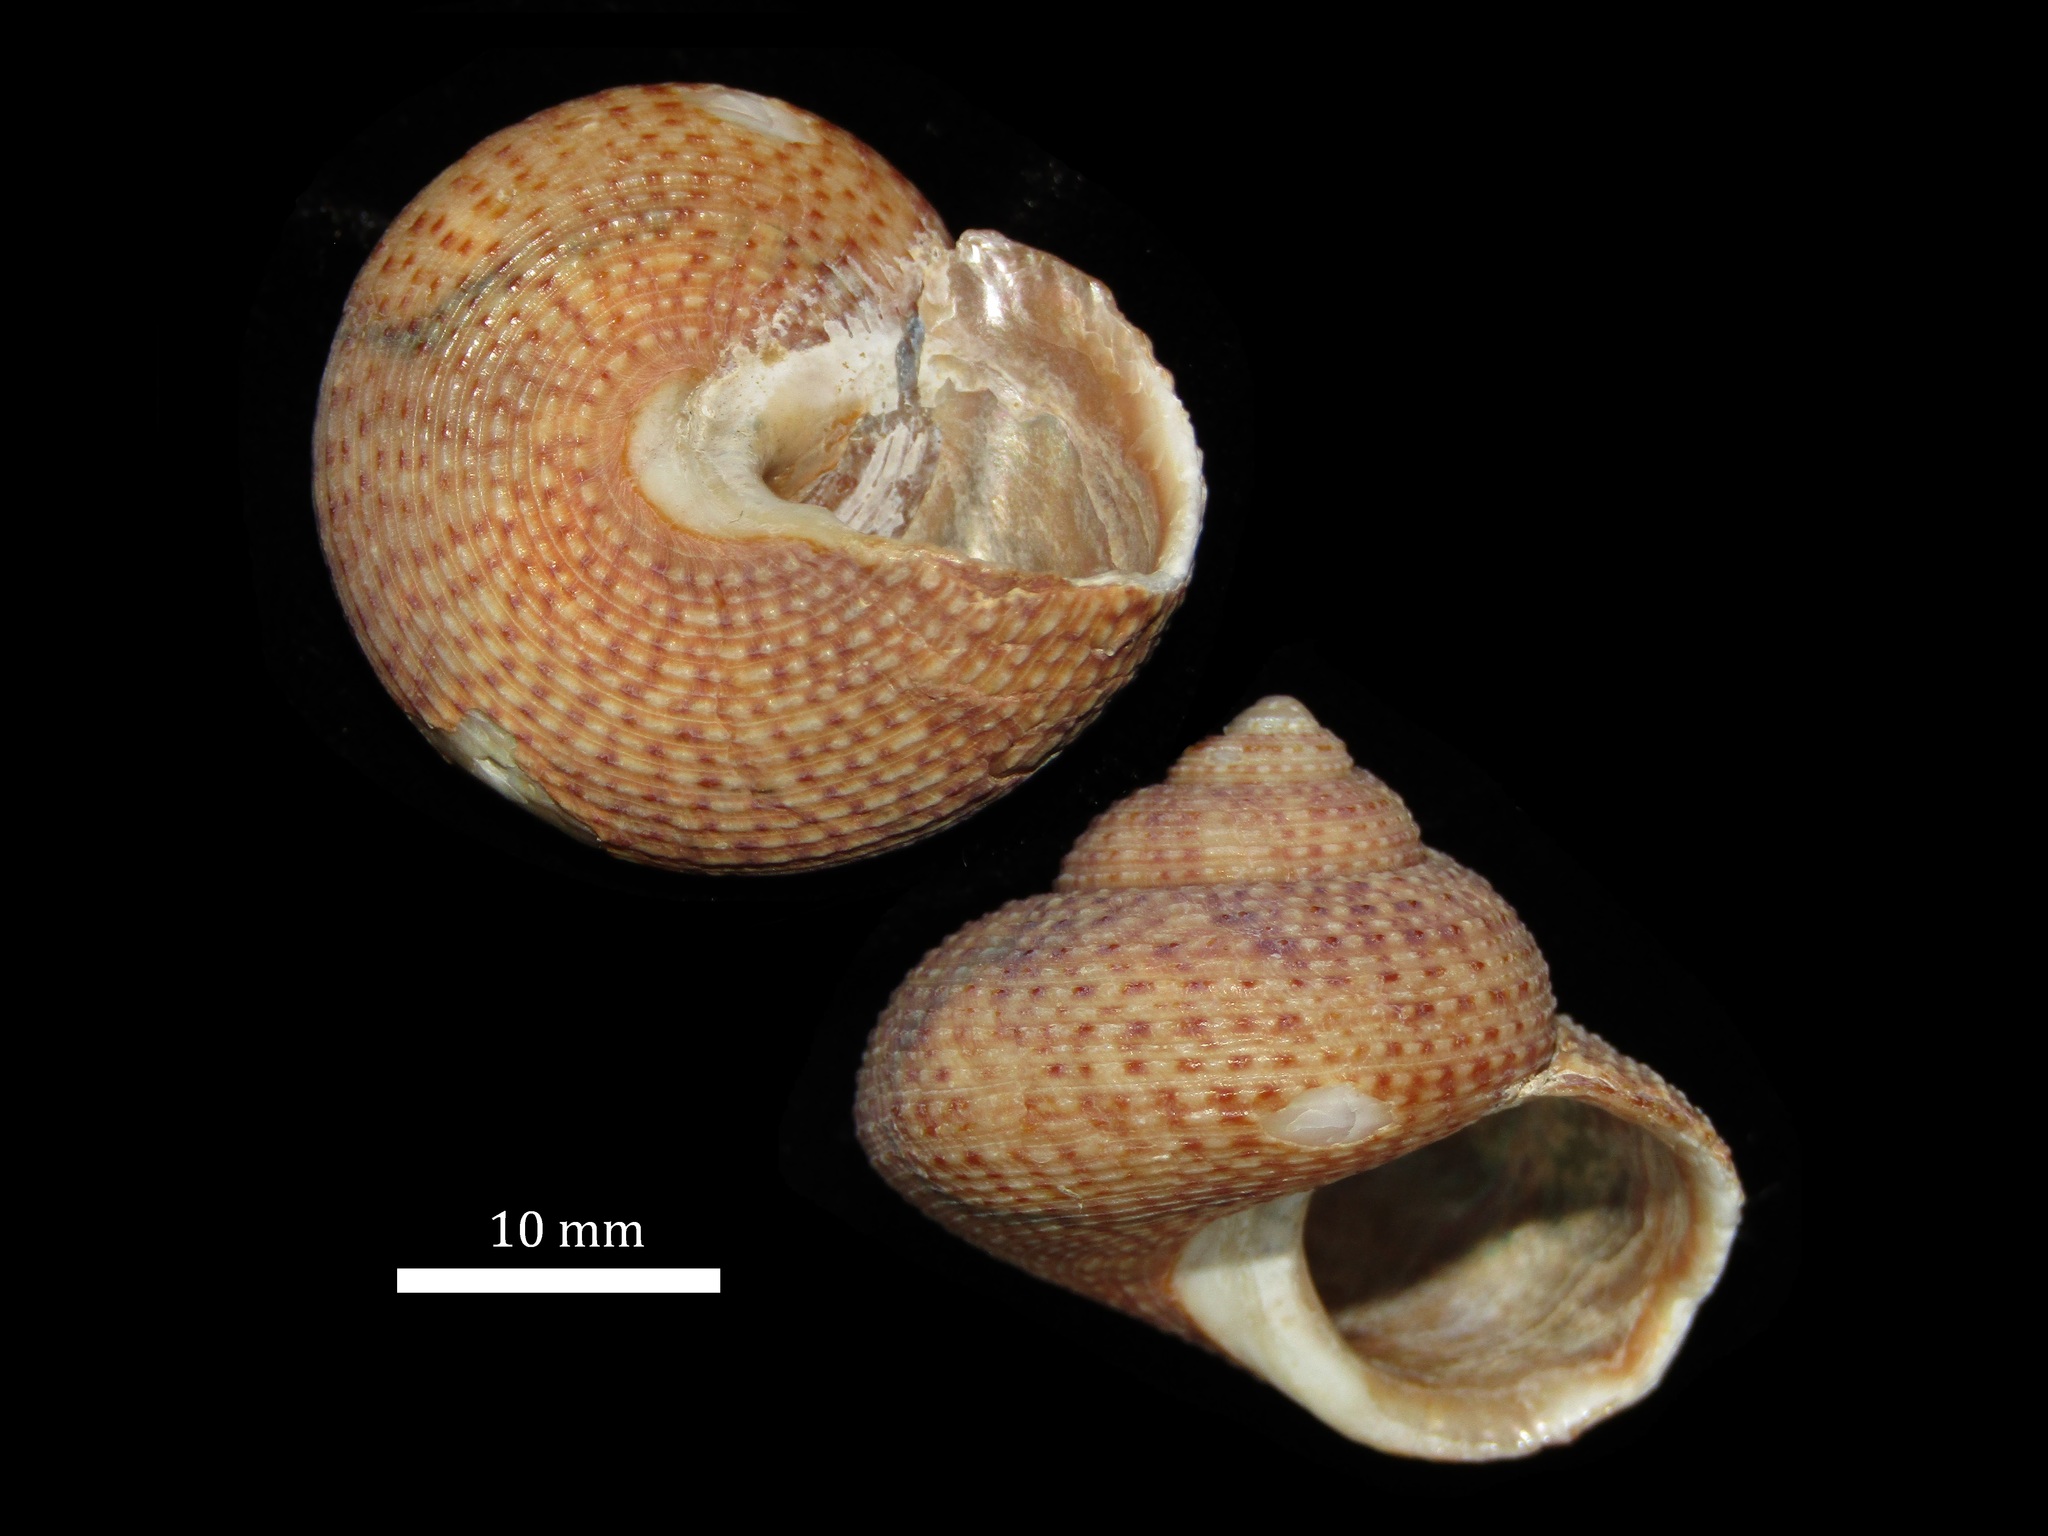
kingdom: Animalia
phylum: Mollusca
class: Gastropoda
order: Trochida
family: Calliostomatidae
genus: Maurea
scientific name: Maurea punctulata
